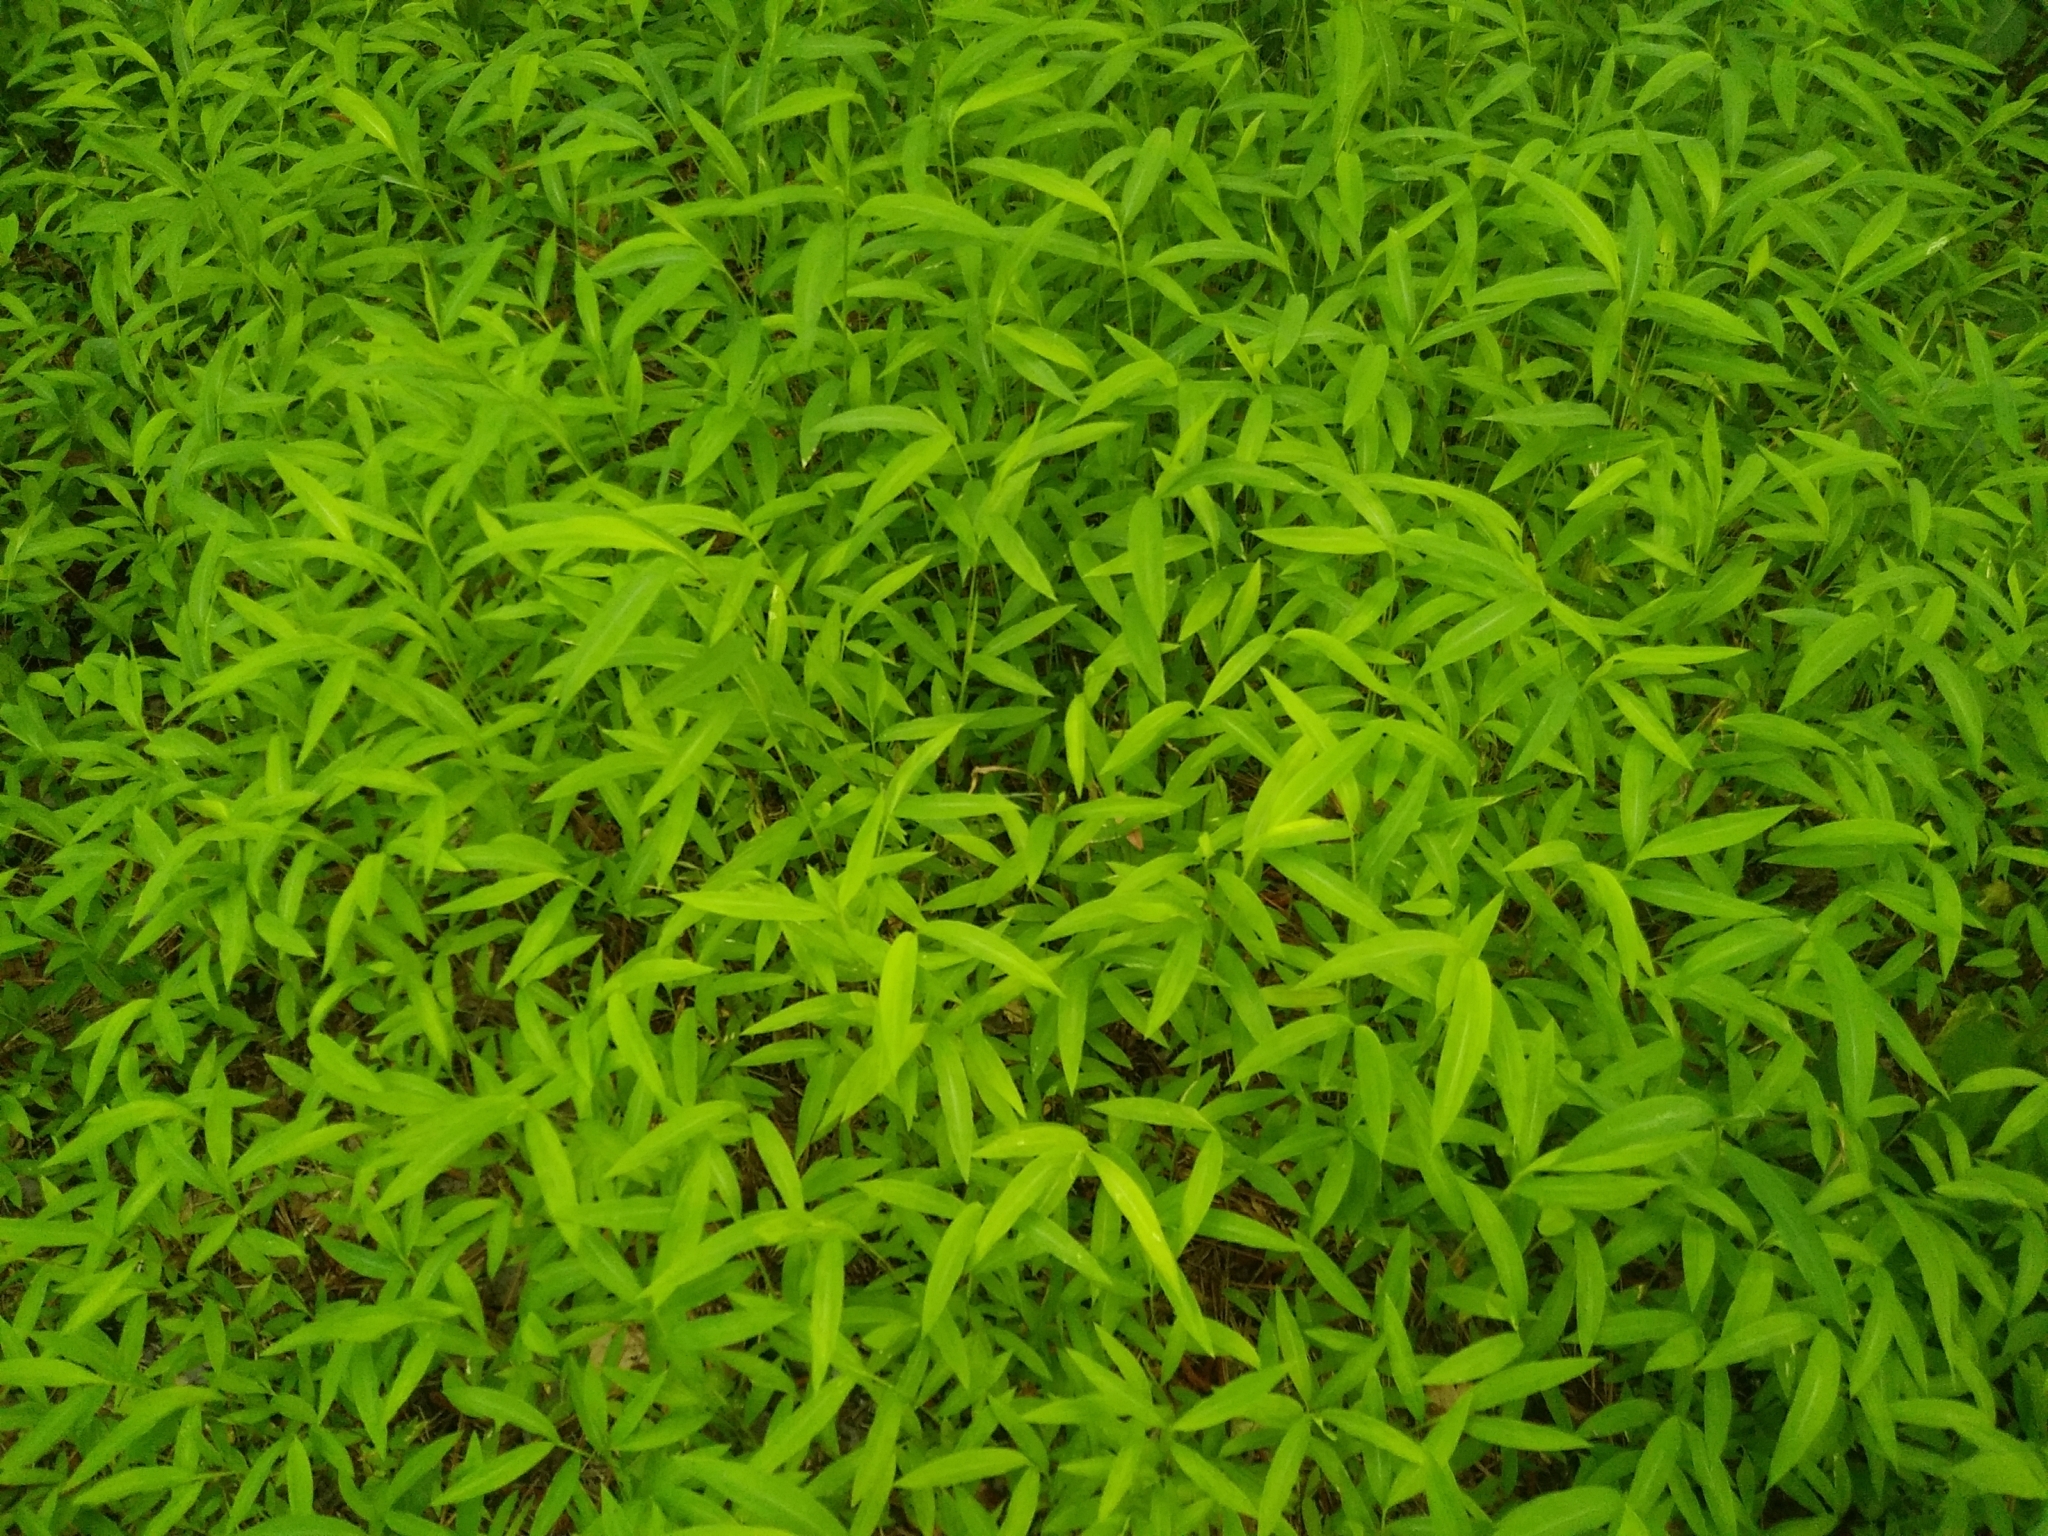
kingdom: Plantae
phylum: Tracheophyta
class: Liliopsida
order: Poales
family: Poaceae
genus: Microstegium
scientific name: Microstegium vimineum
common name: Japanese stiltgrass
